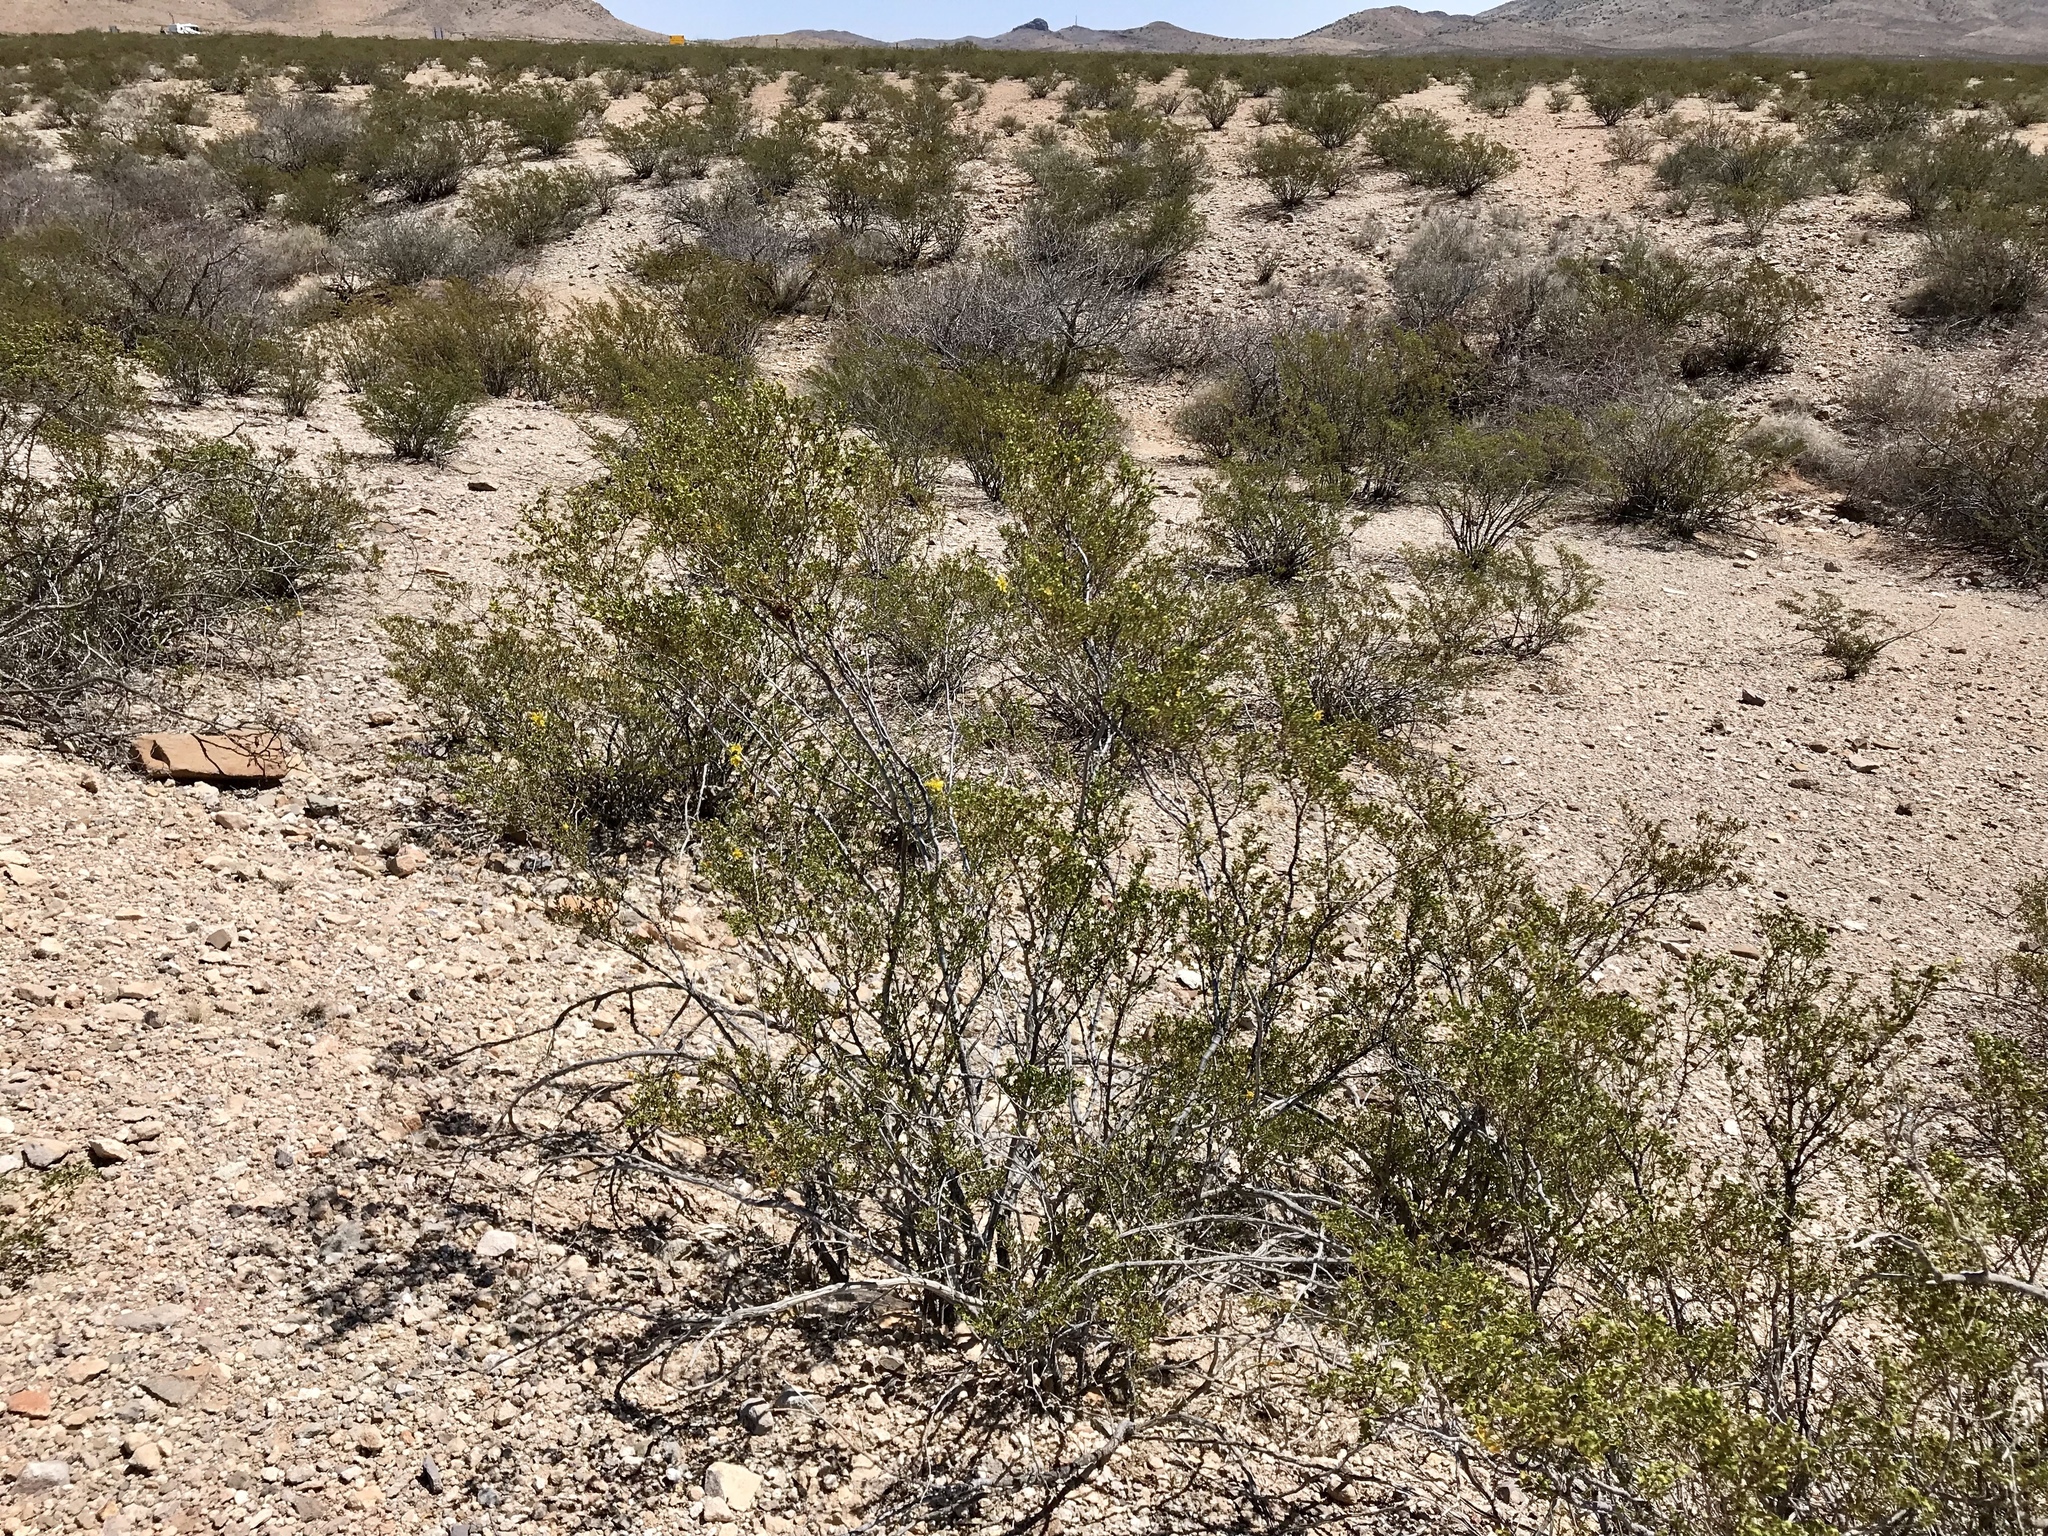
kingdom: Plantae
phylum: Tracheophyta
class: Magnoliopsida
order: Zygophyllales
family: Zygophyllaceae
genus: Larrea
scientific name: Larrea tridentata
